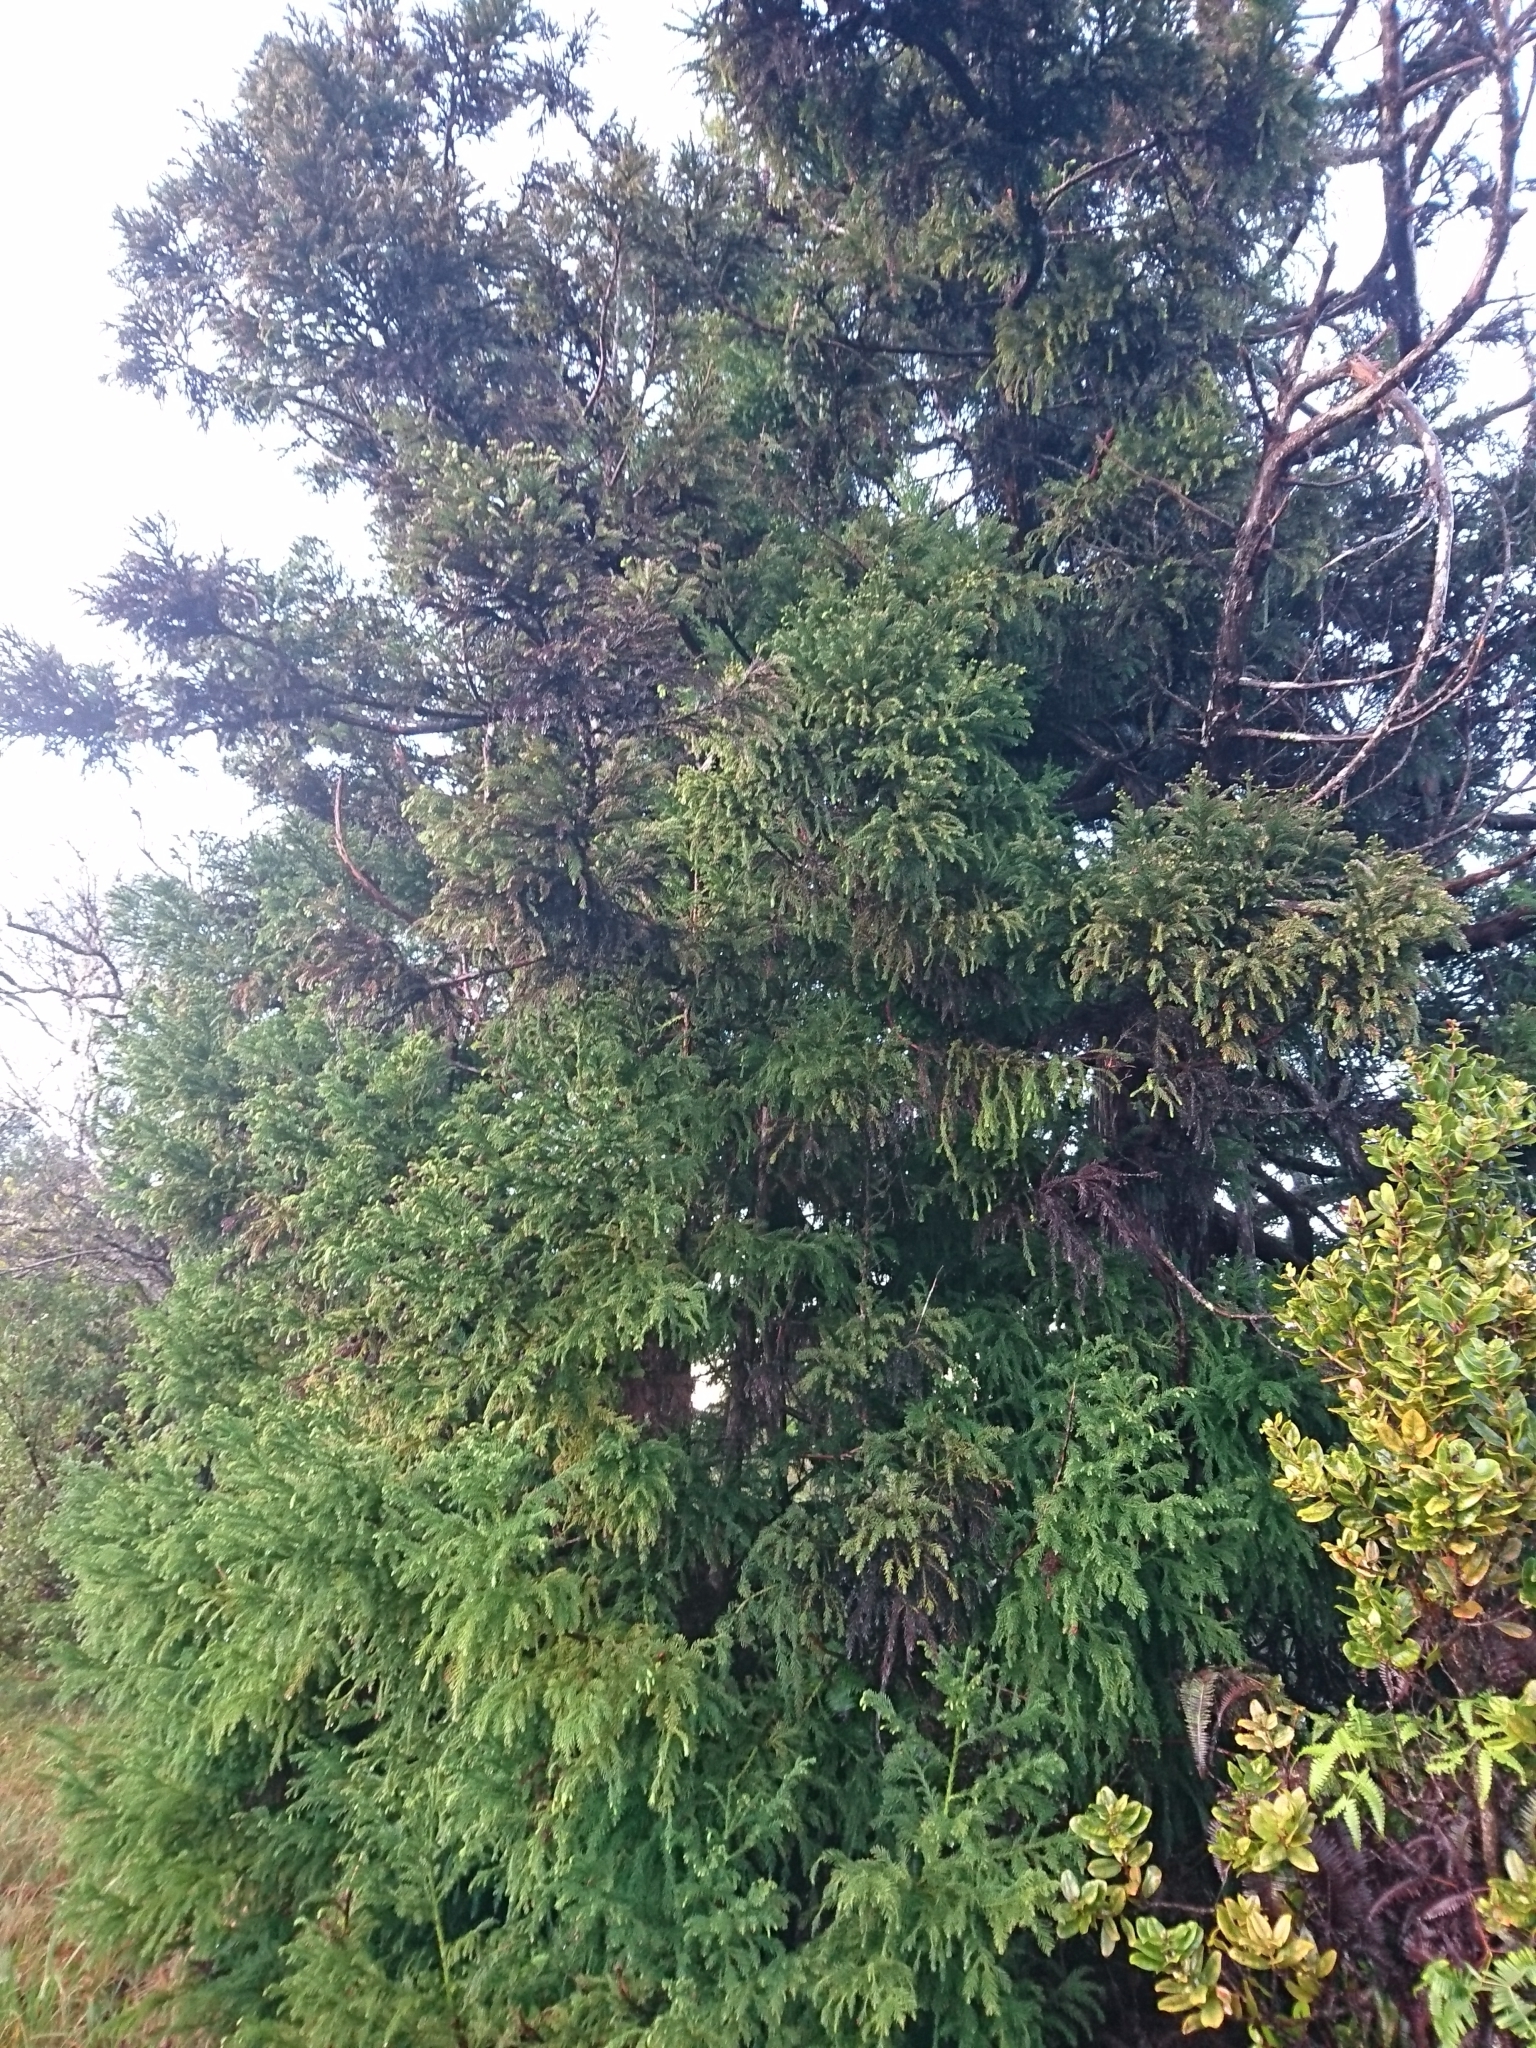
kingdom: Plantae
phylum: Tracheophyta
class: Pinopsida
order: Pinales
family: Cupressaceae
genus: Cryptomeria
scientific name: Cryptomeria japonica
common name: Japanese cedar
